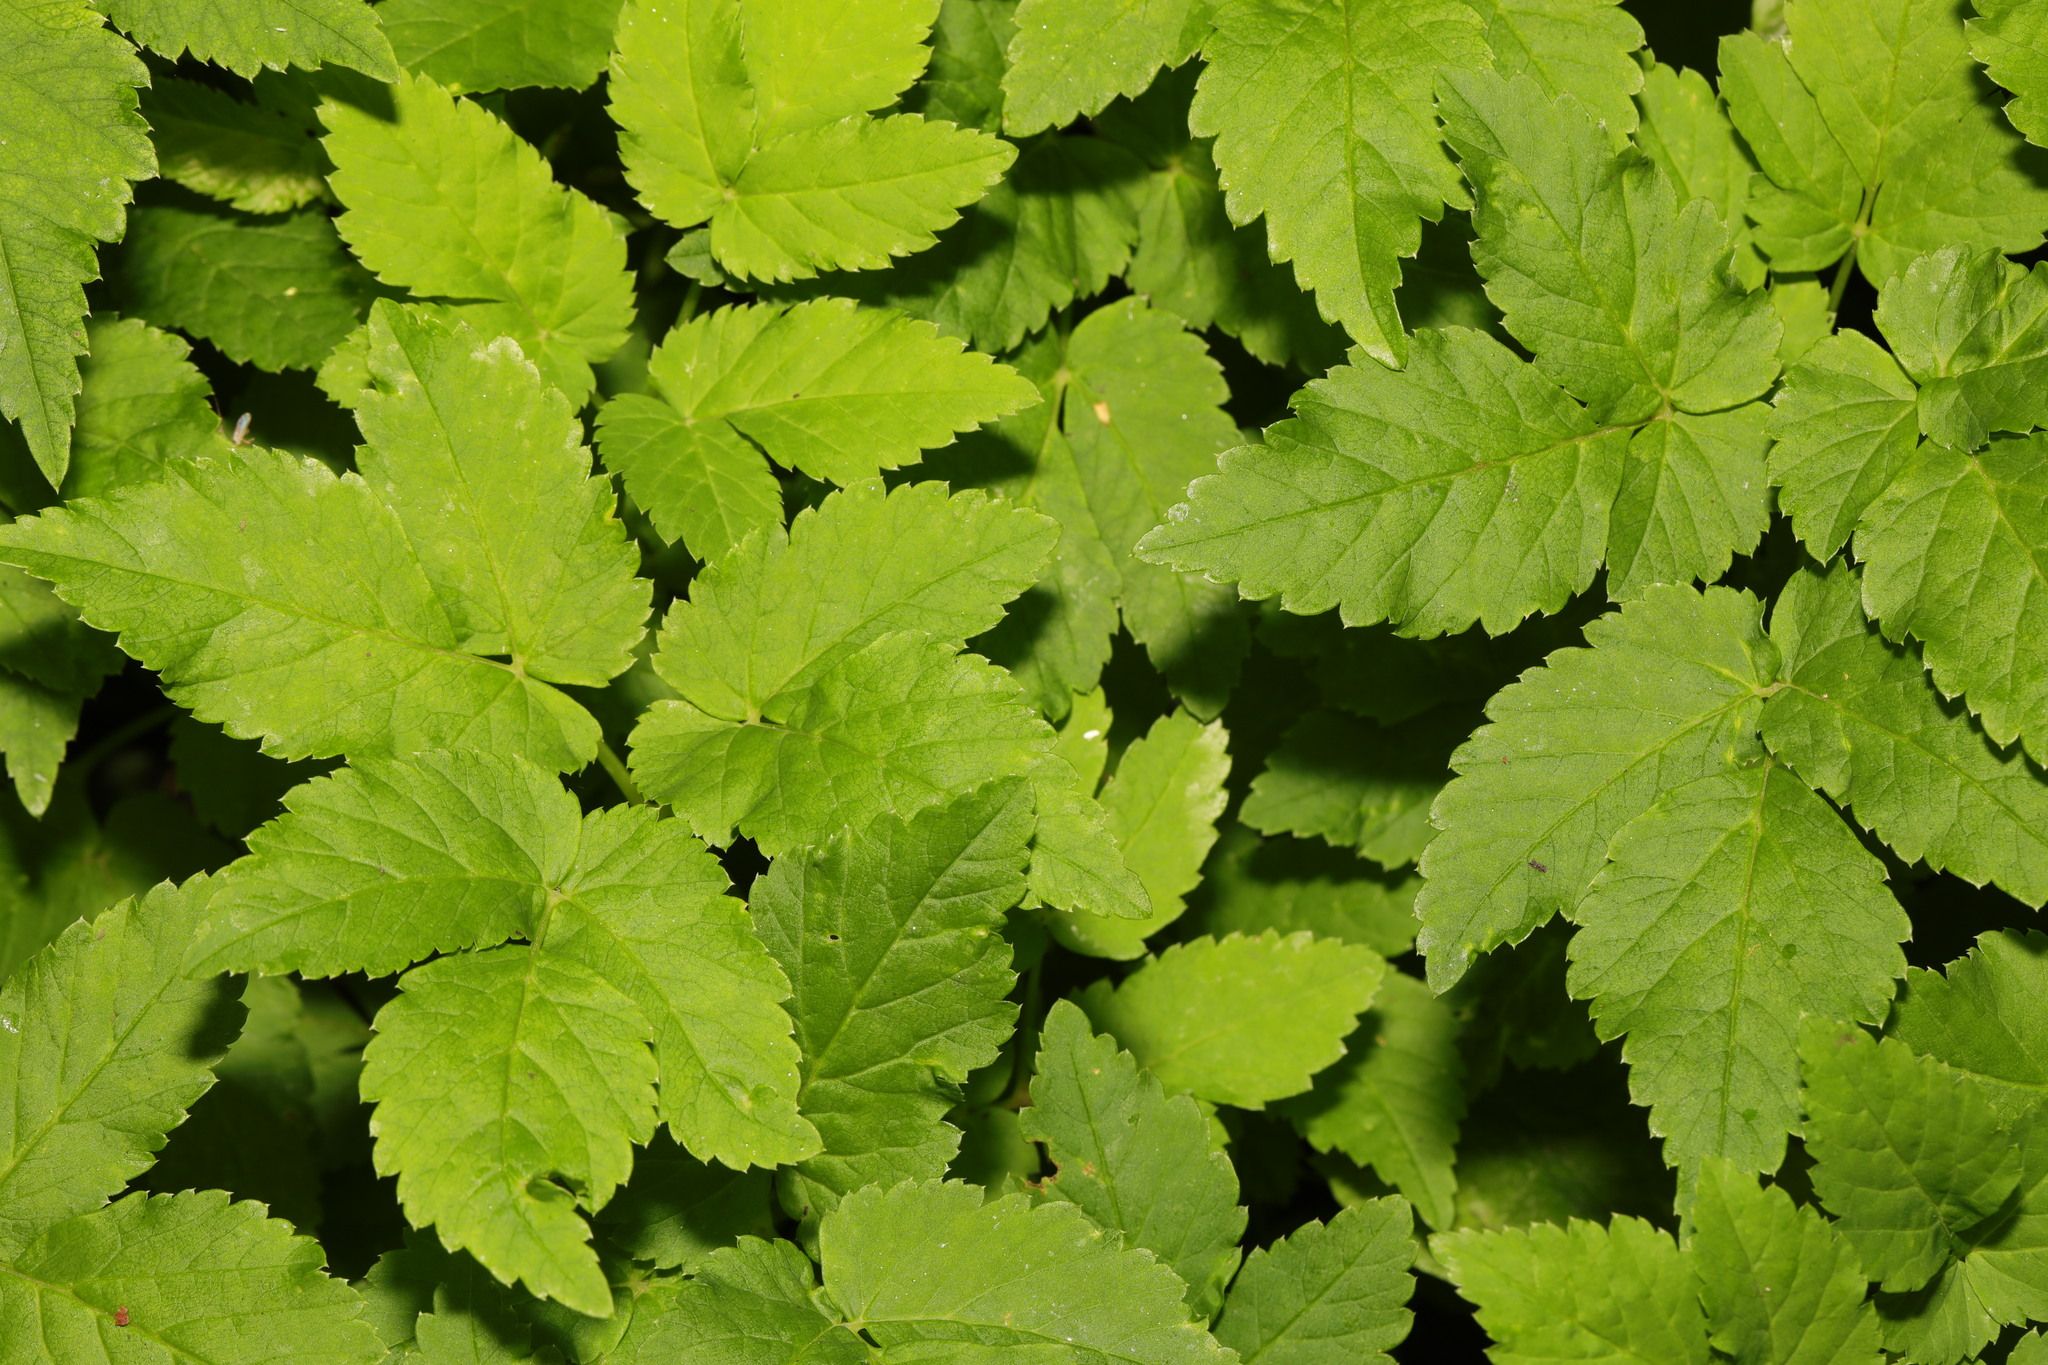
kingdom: Plantae
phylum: Tracheophyta
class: Magnoliopsida
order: Apiales
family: Apiaceae
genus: Aegopodium
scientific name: Aegopodium podagraria
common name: Ground-elder
